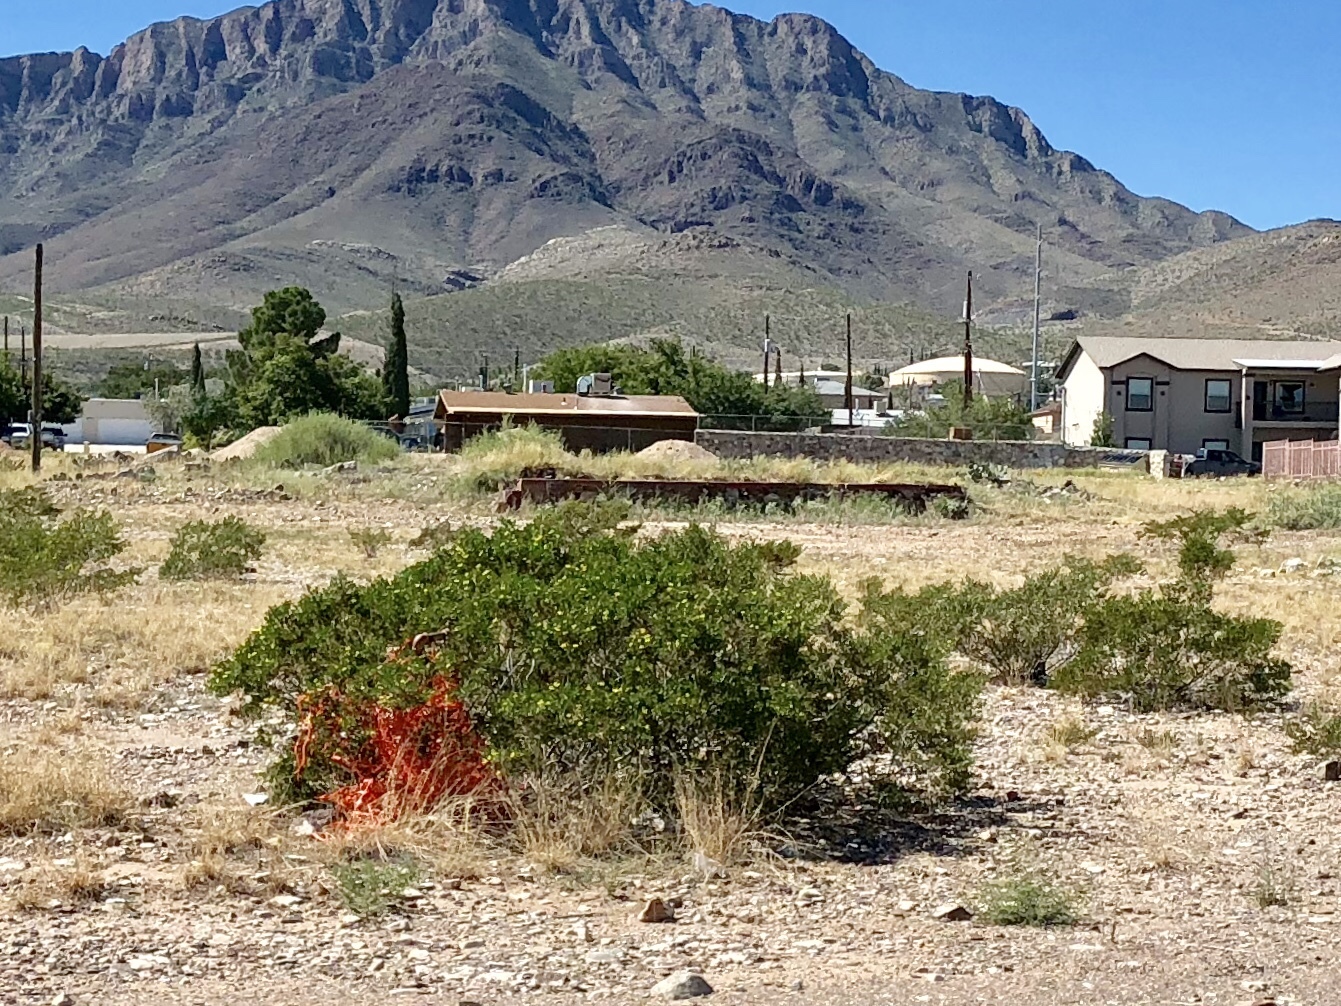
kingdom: Plantae
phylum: Tracheophyta
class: Magnoliopsida
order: Zygophyllales
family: Zygophyllaceae
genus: Larrea
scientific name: Larrea tridentata
